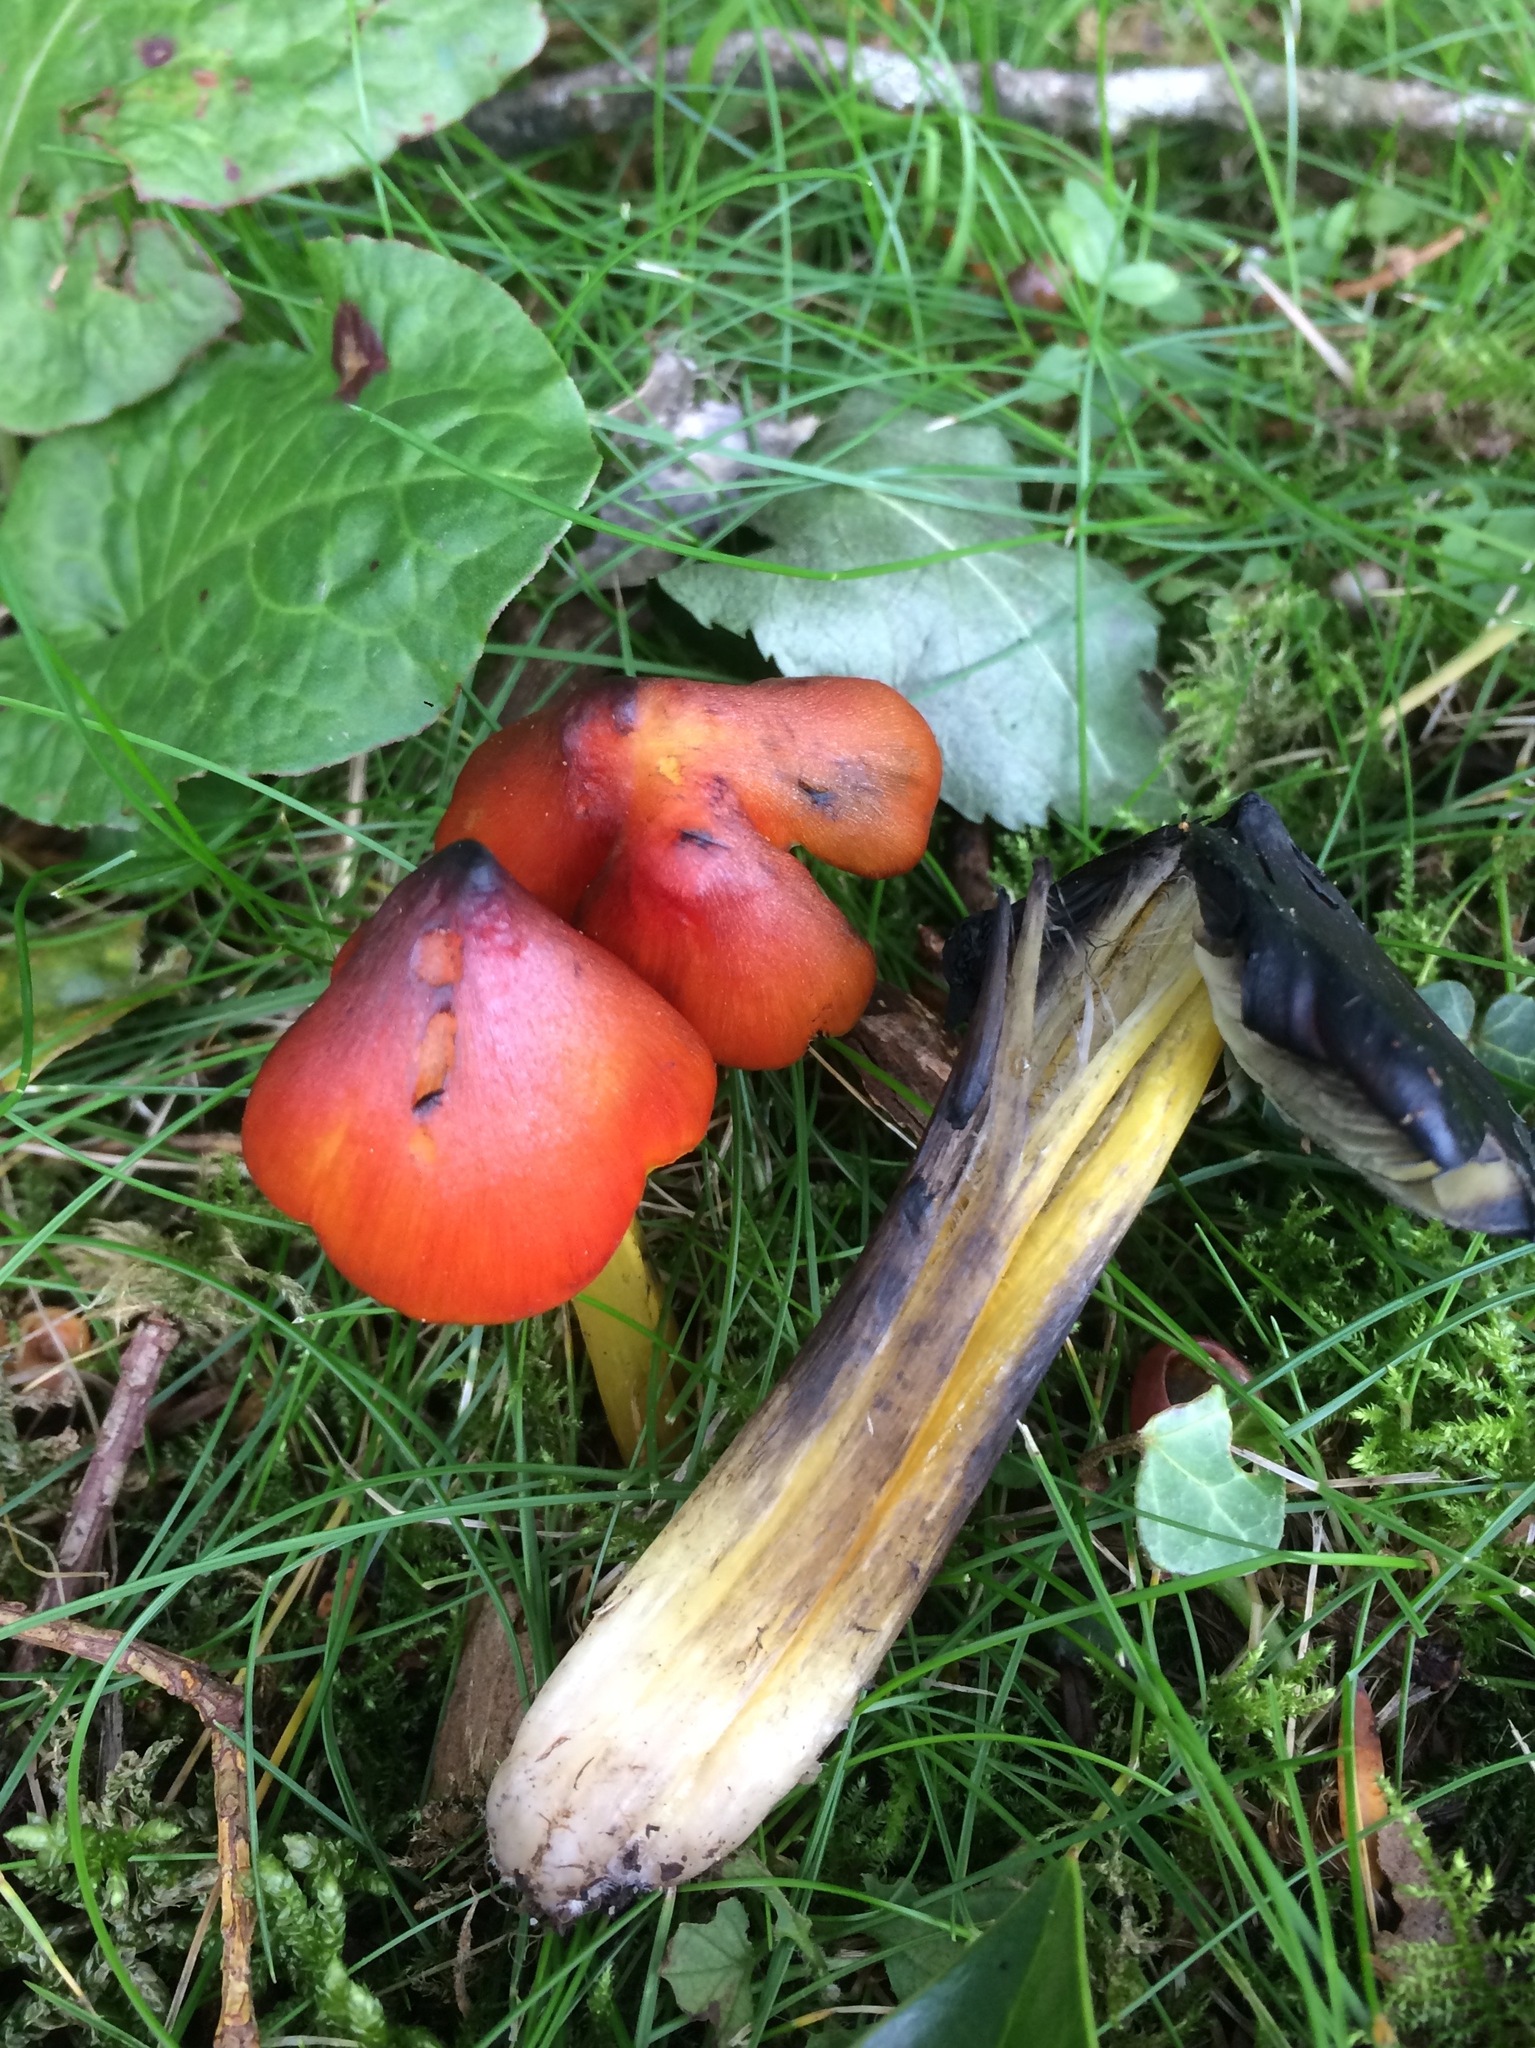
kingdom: Fungi
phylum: Basidiomycota
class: Agaricomycetes
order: Agaricales
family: Hygrophoraceae
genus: Hygrocybe
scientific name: Hygrocybe nigrescens
